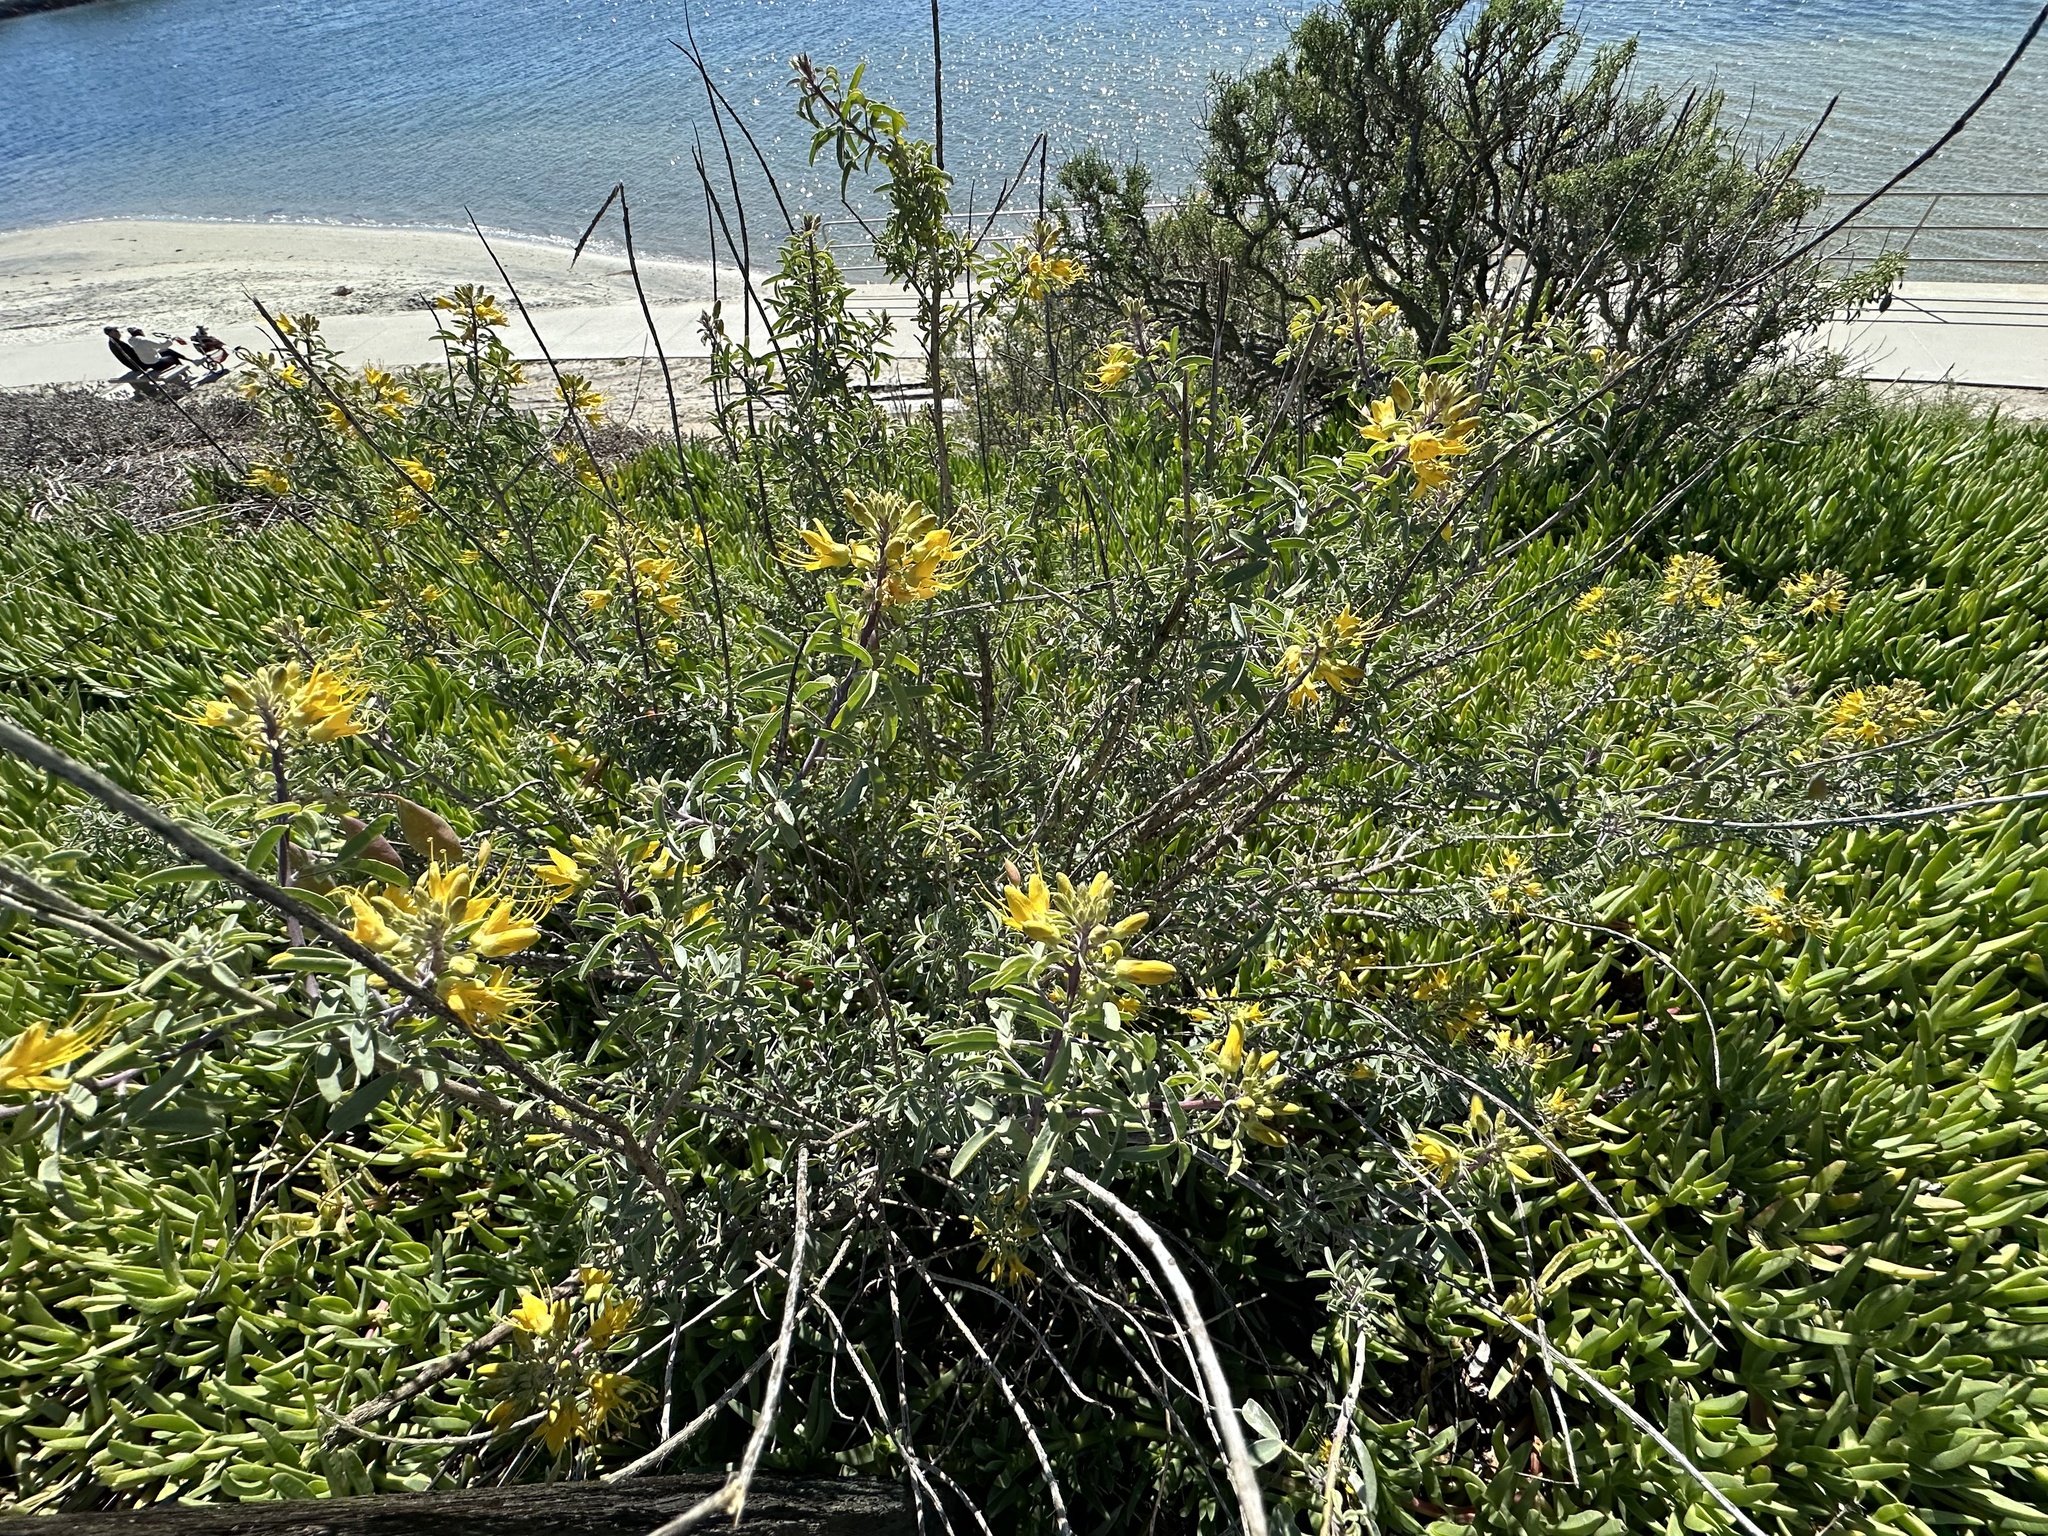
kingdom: Plantae
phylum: Tracheophyta
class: Magnoliopsida
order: Brassicales
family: Cleomaceae
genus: Cleomella
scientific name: Cleomella arborea
